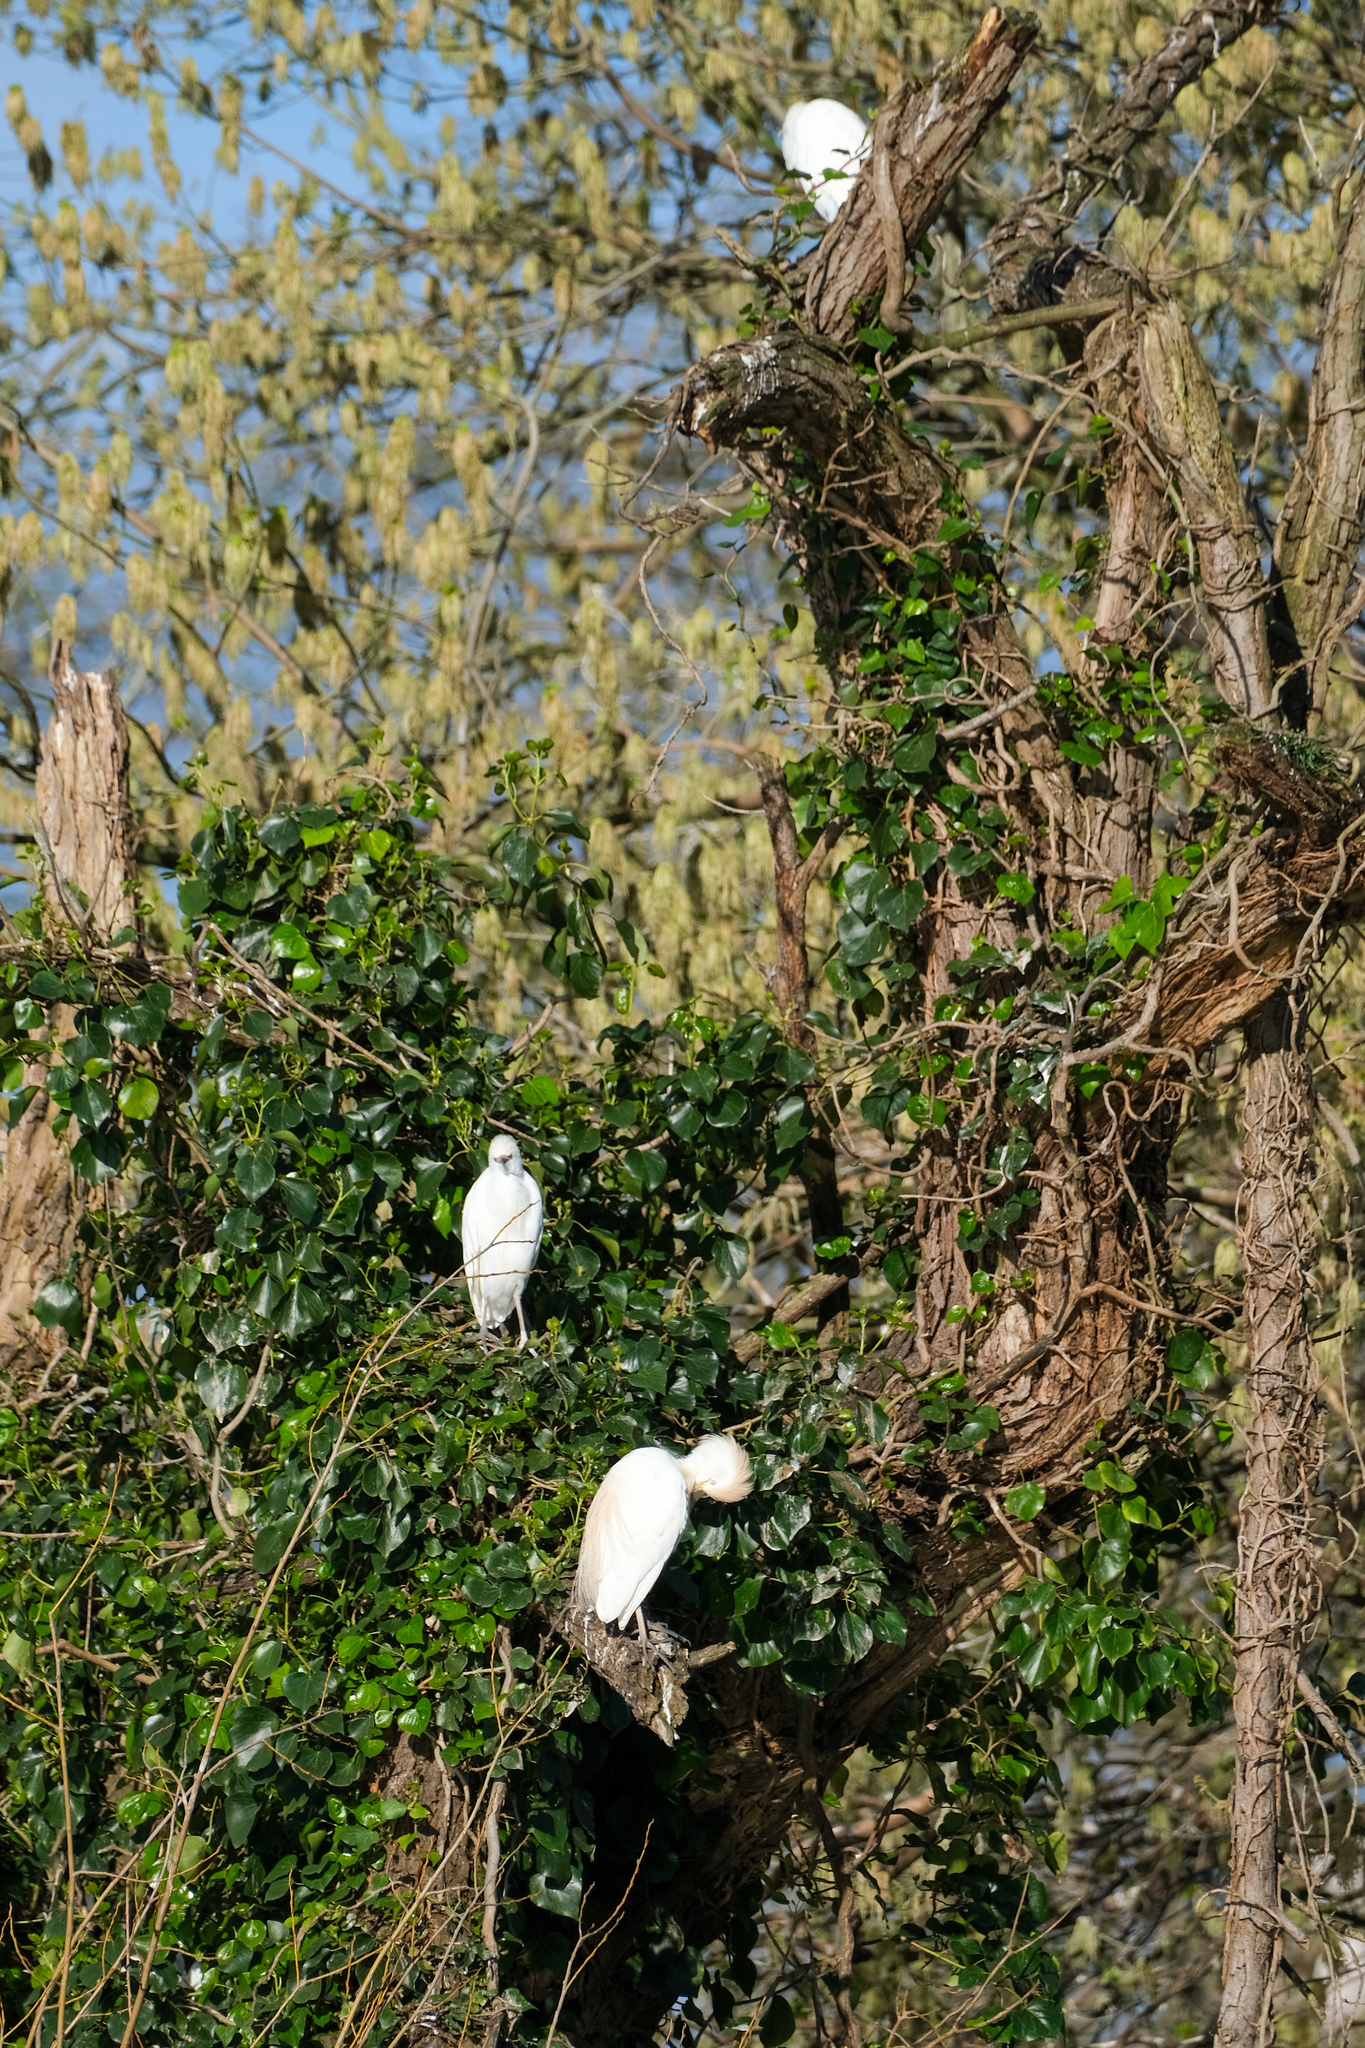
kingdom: Animalia
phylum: Chordata
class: Aves
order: Pelecaniformes
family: Ardeidae
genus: Bubulcus
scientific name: Bubulcus ibis
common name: Cattle egret
